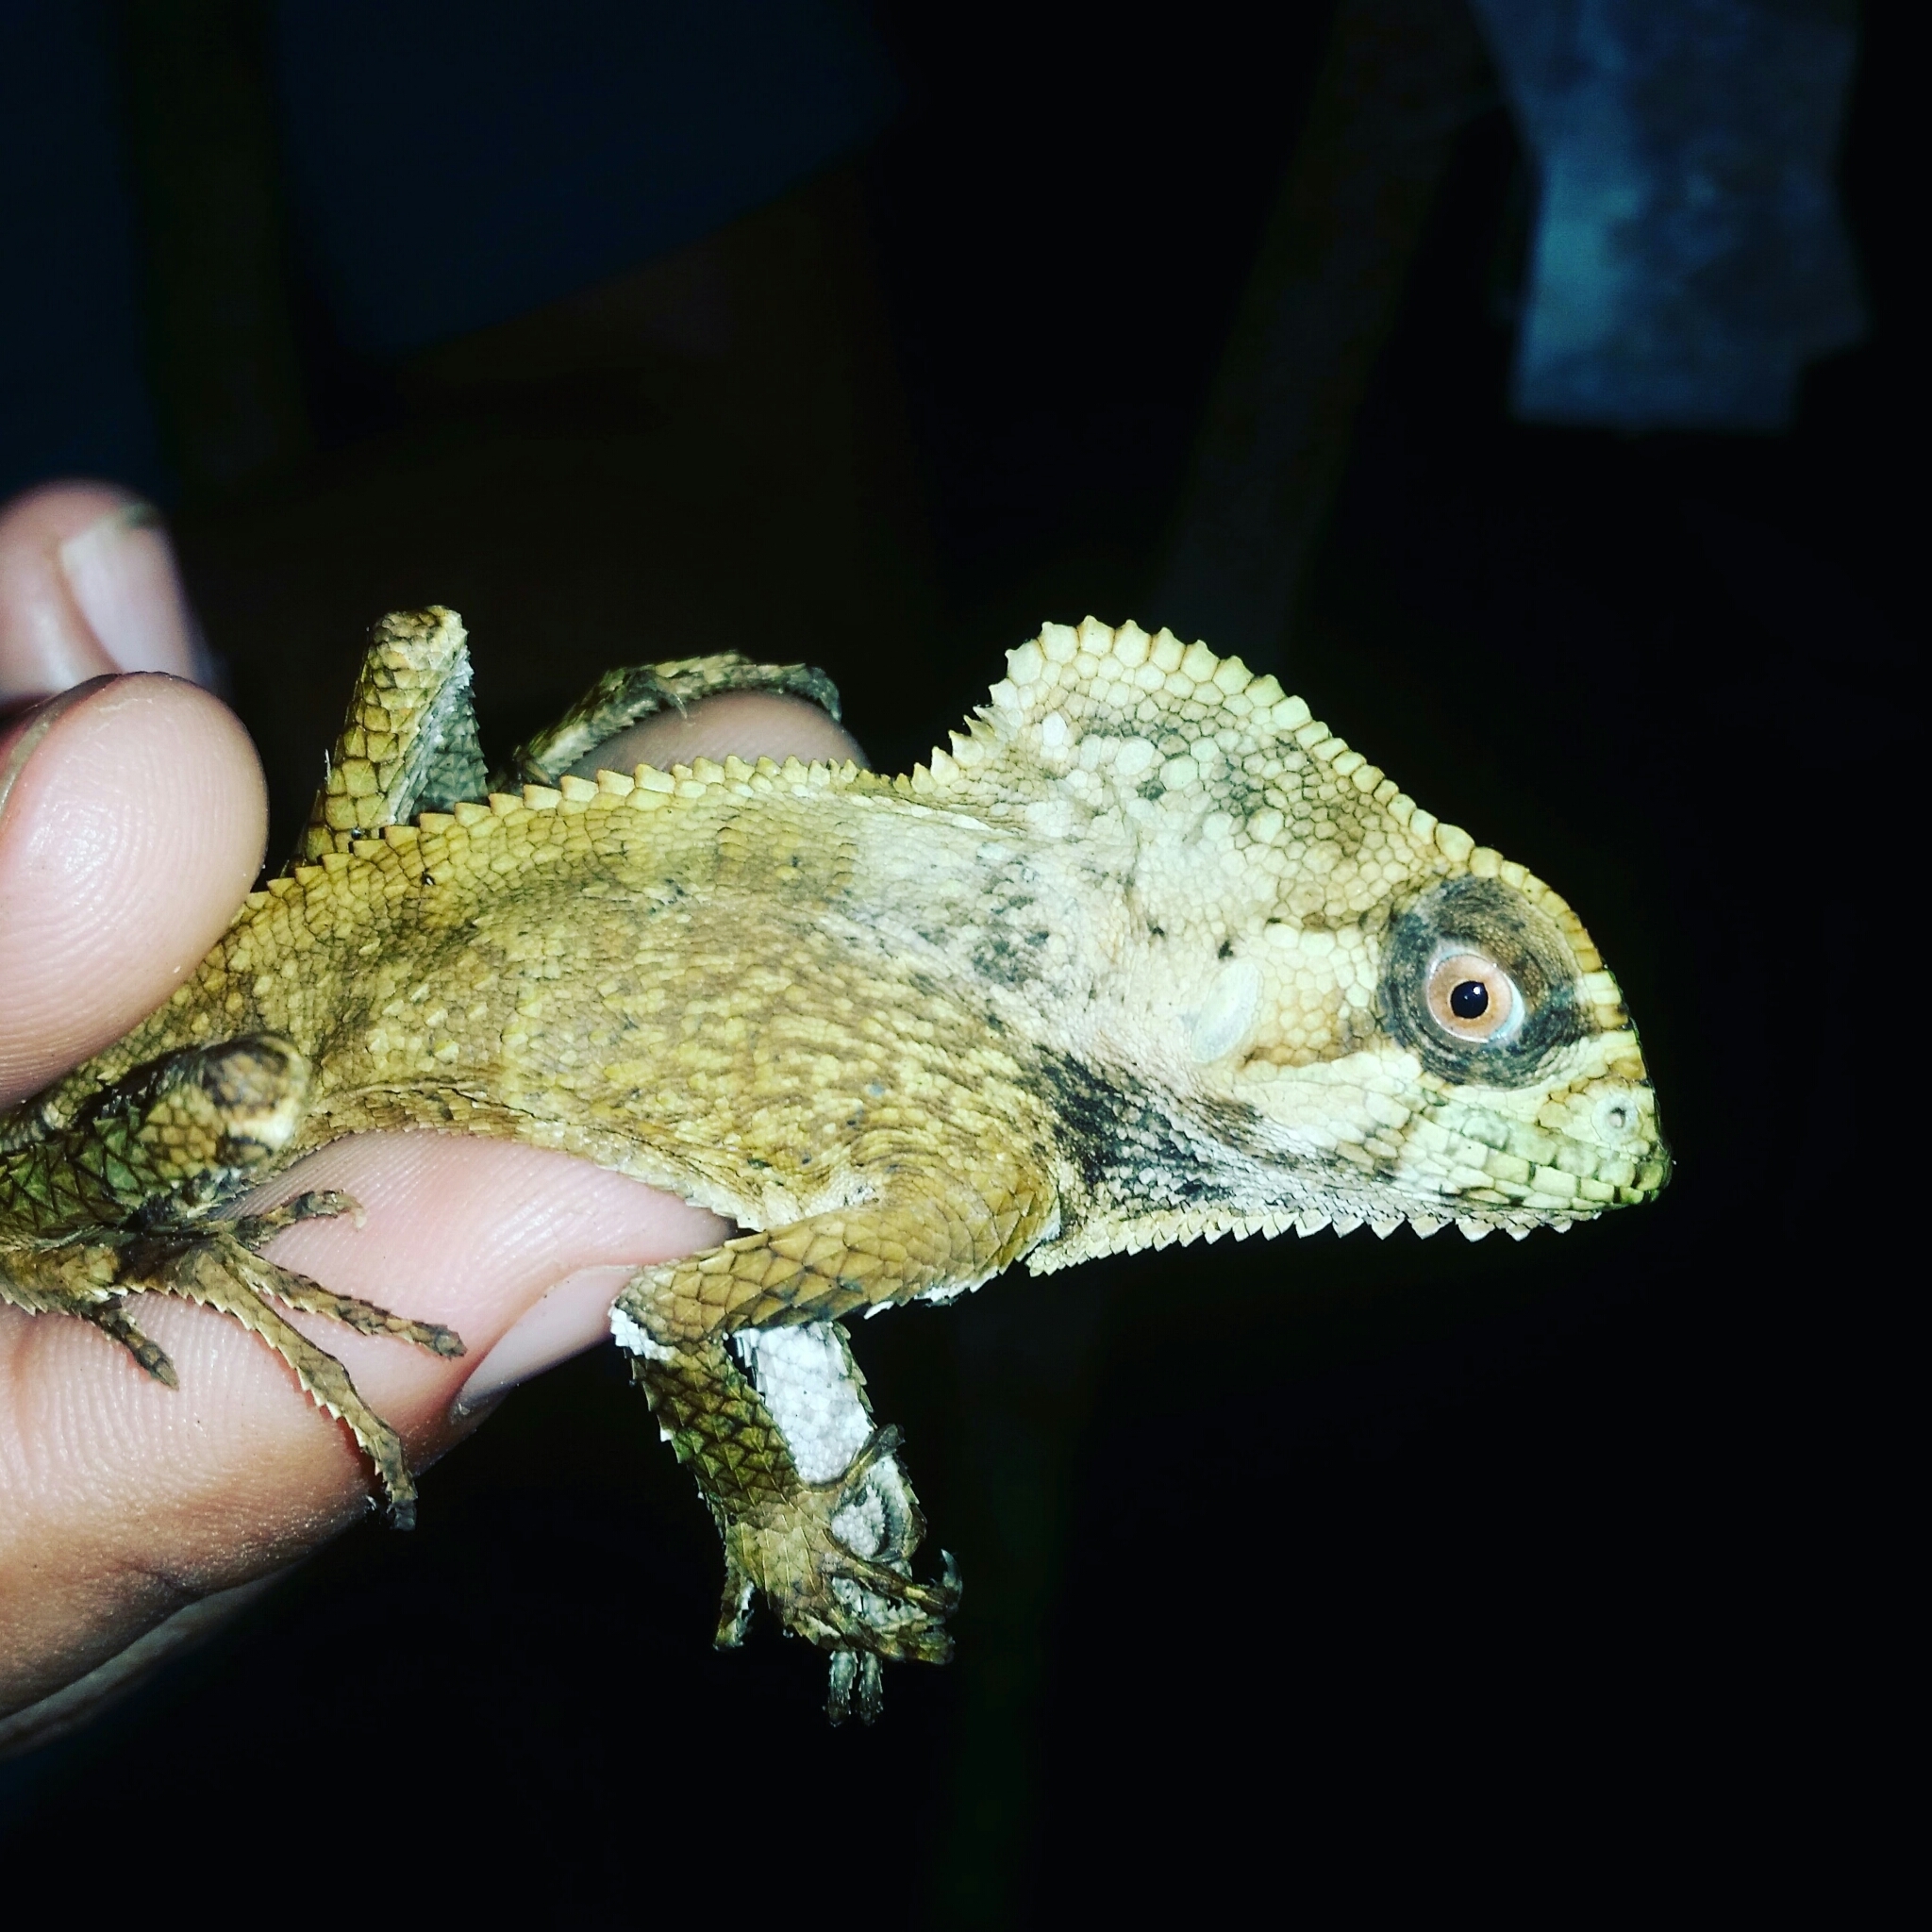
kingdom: Animalia
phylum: Chordata
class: Squamata
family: Corytophanidae
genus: Corytophanes
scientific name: Corytophanes cristatus
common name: Smooth helmeted iguana
